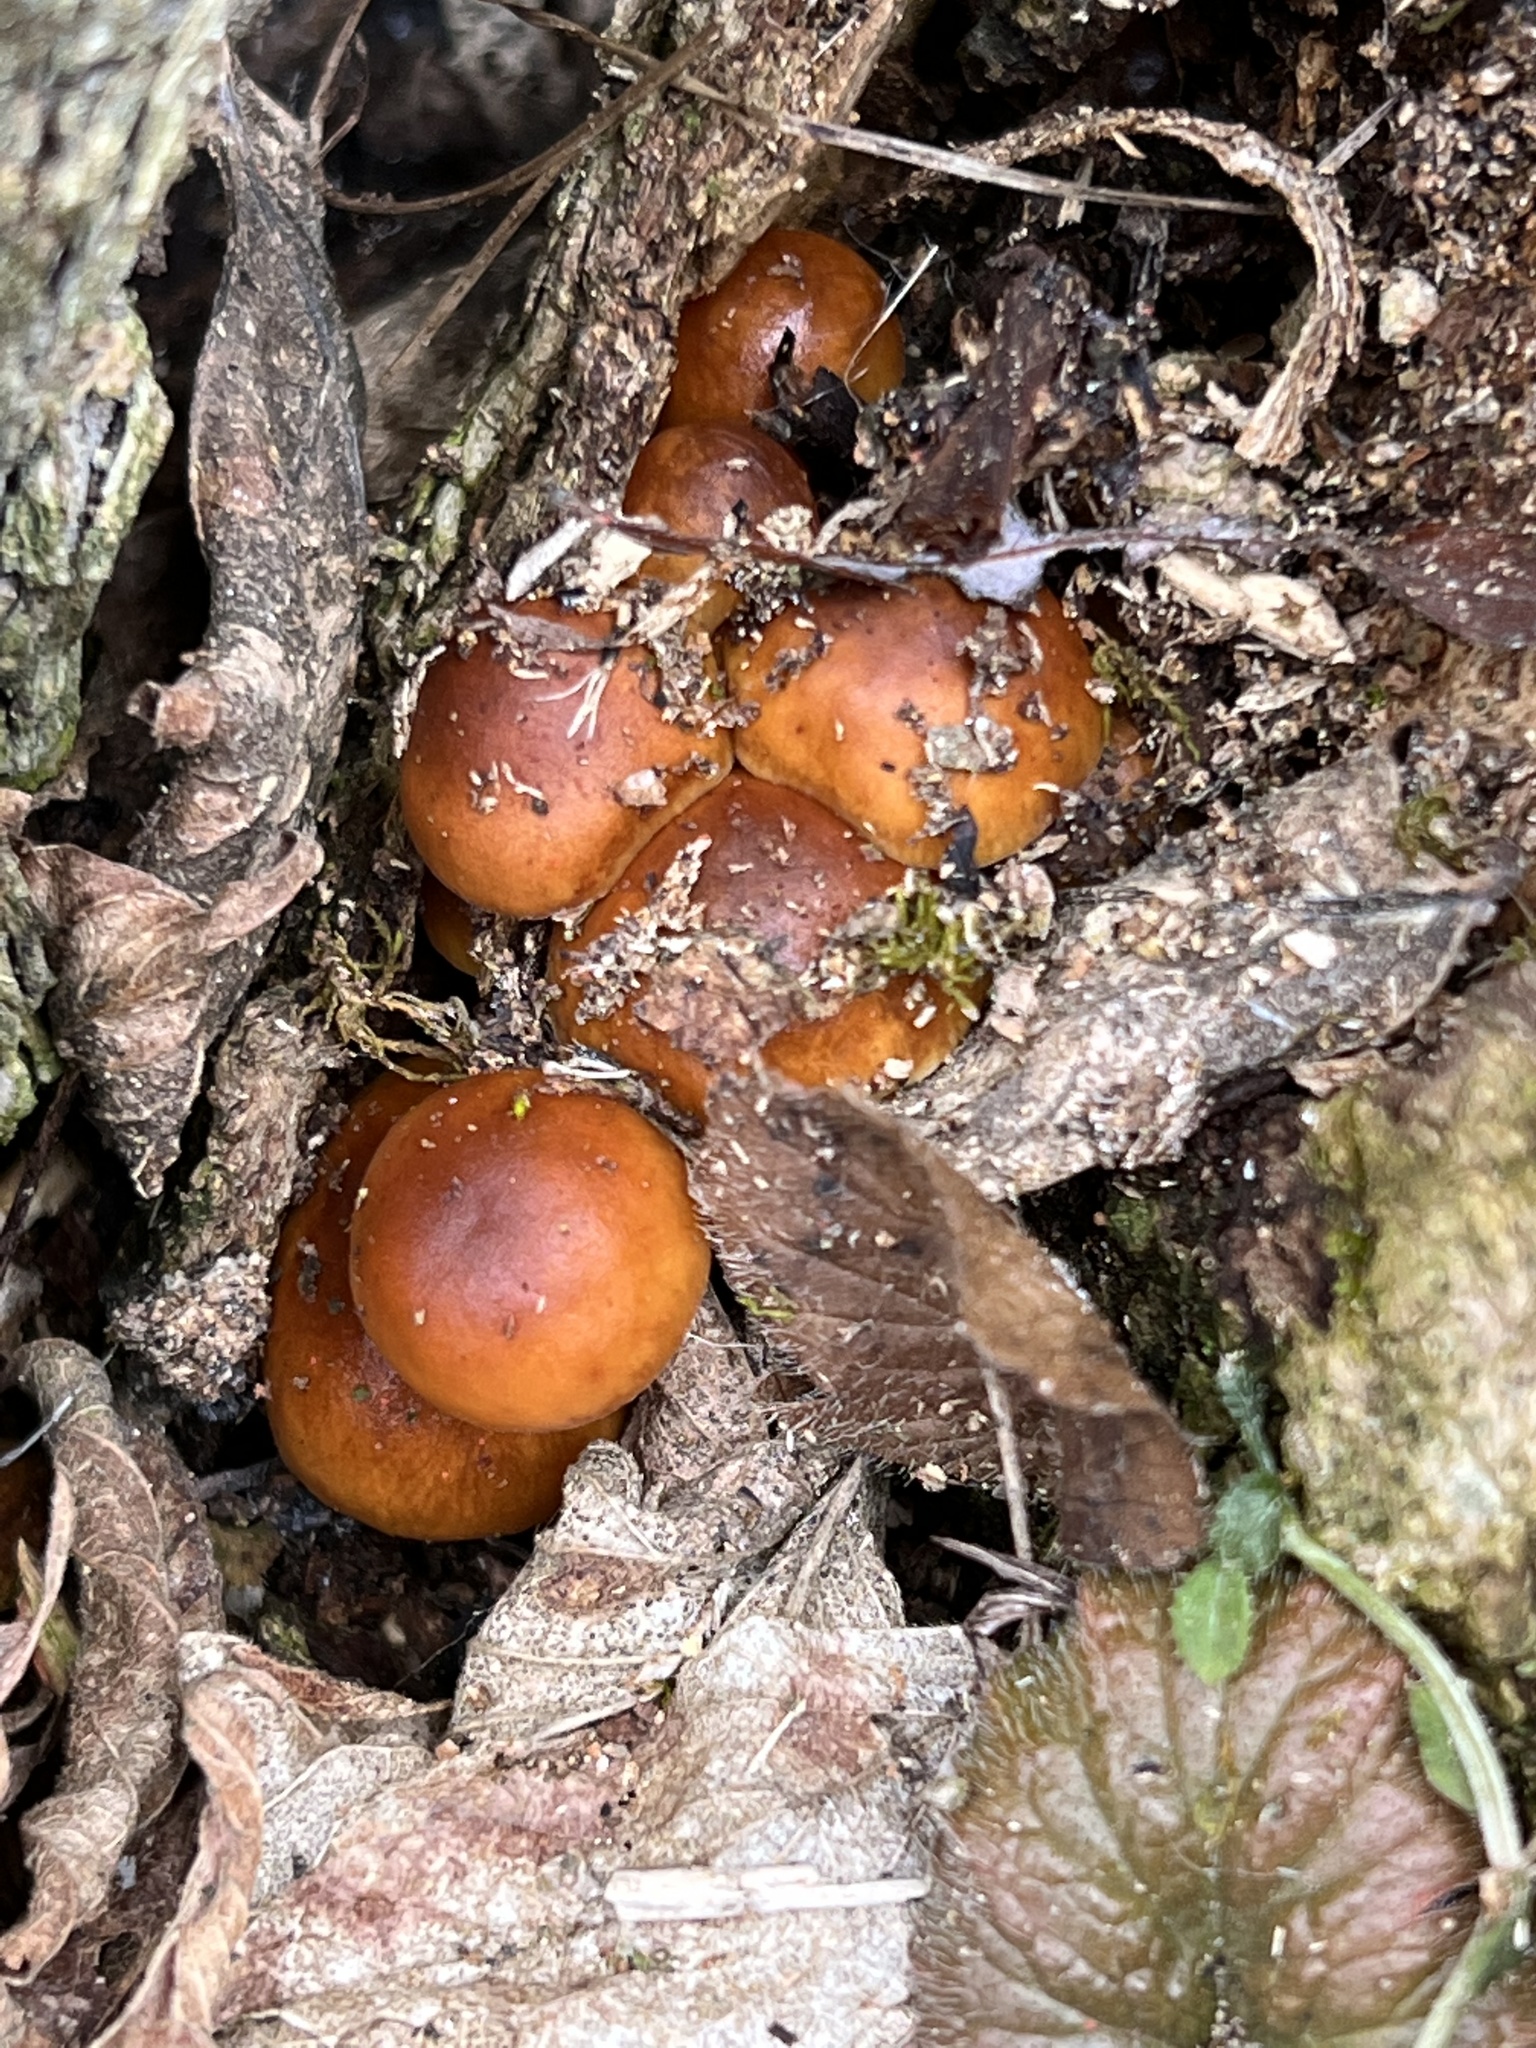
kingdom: Fungi
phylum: Basidiomycota
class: Agaricomycetes
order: Agaricales
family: Physalacriaceae
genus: Flammulina
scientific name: Flammulina velutipes
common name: Velvet shank
